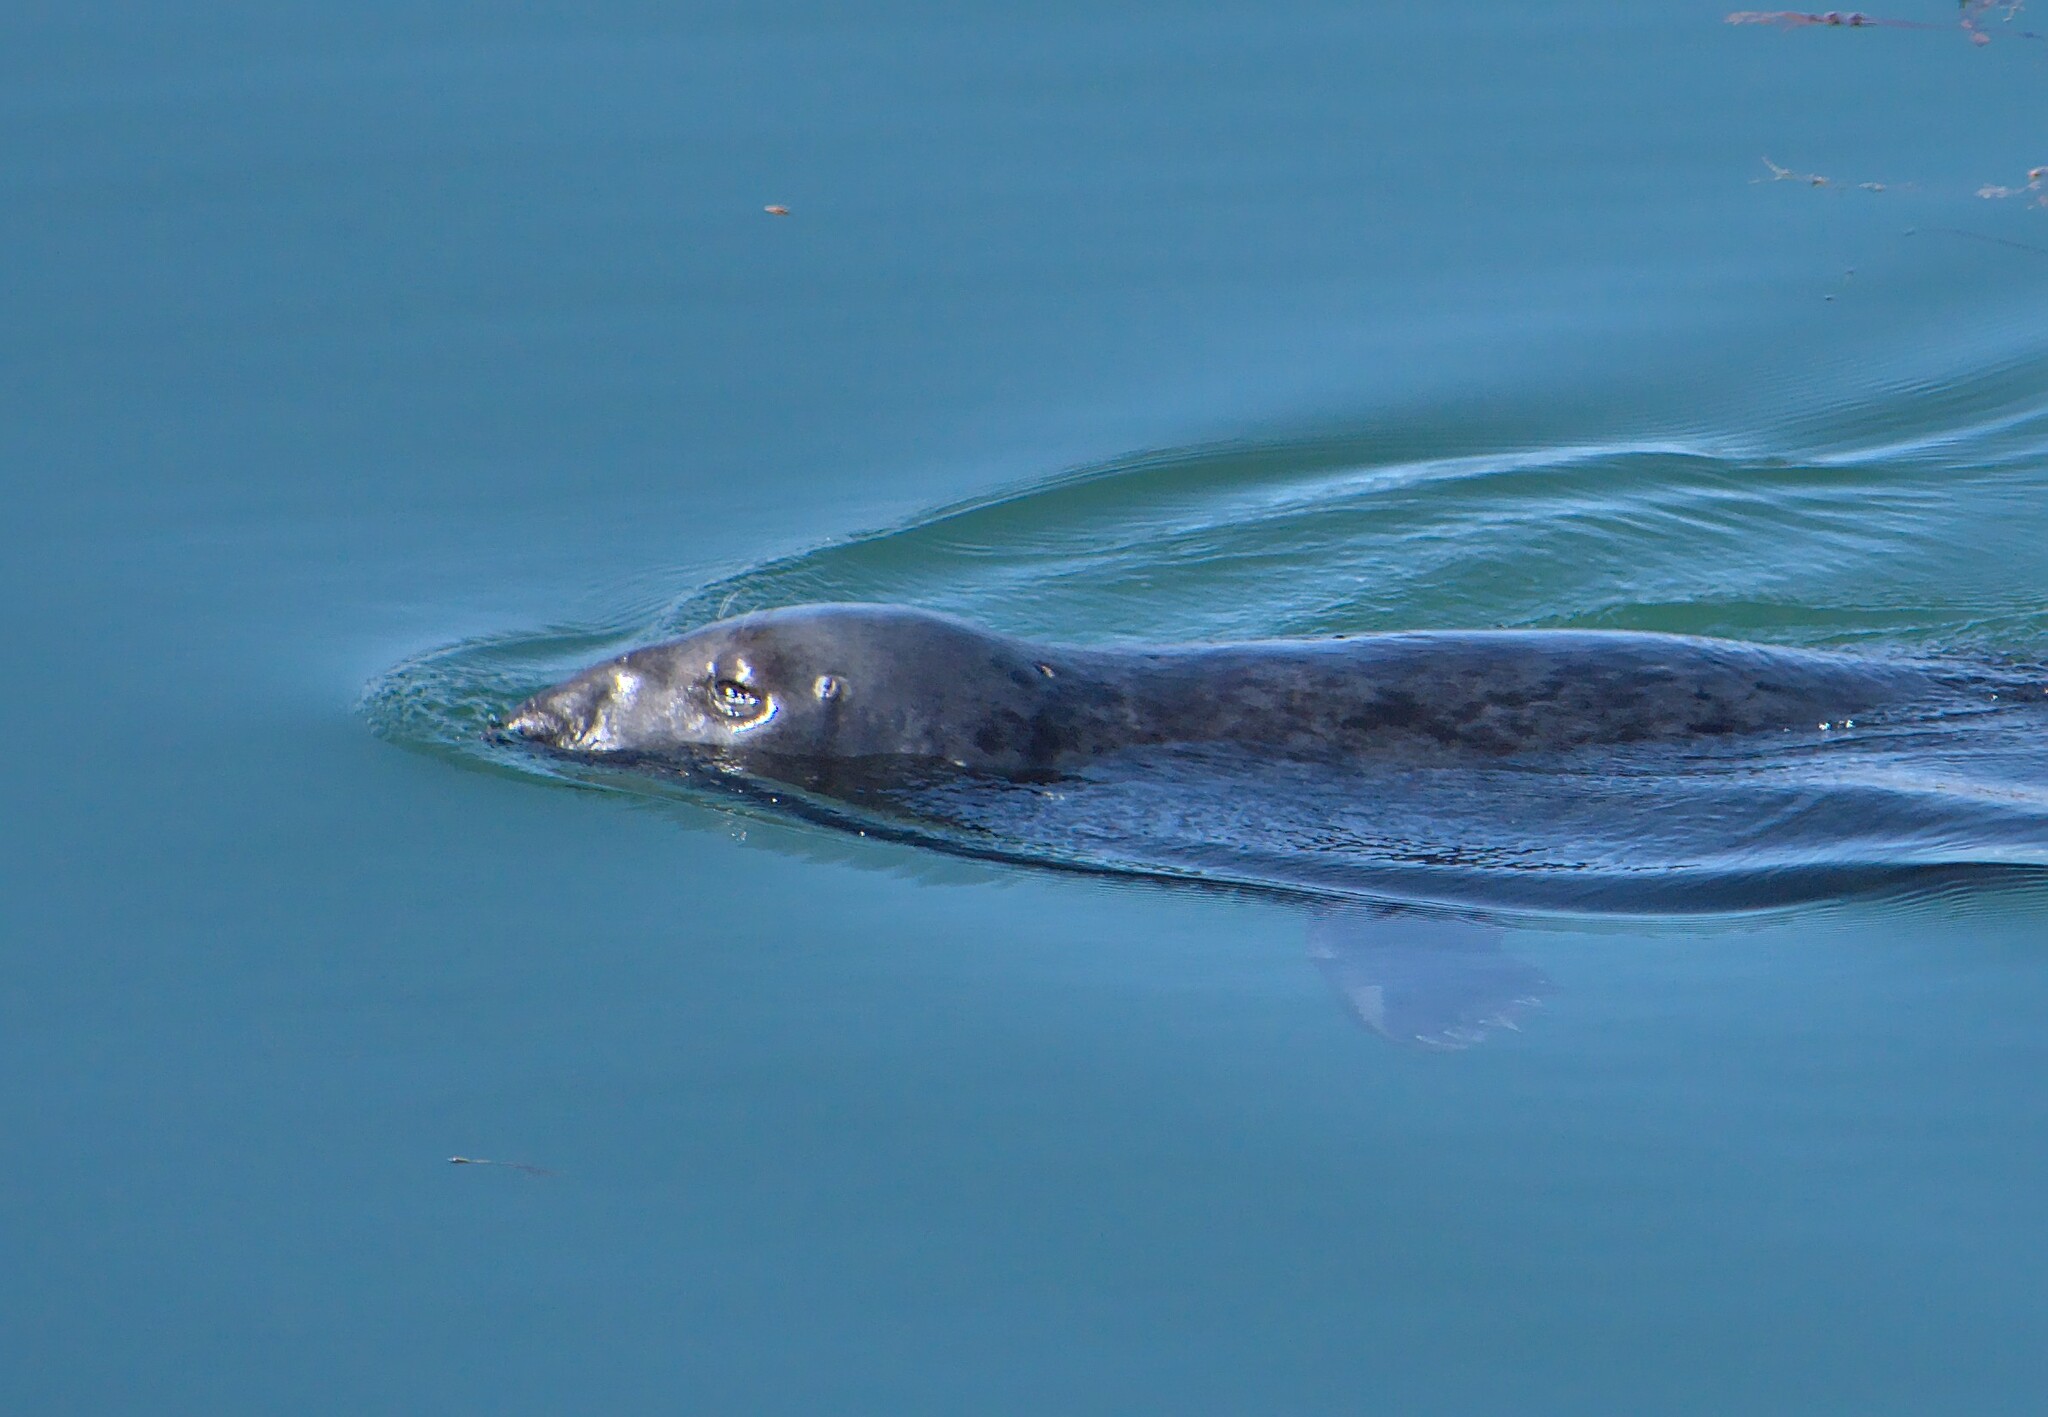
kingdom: Animalia
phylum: Chordata
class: Mammalia
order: Carnivora
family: Phocidae
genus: Halichoerus
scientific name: Halichoerus grypus
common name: Grey seal
